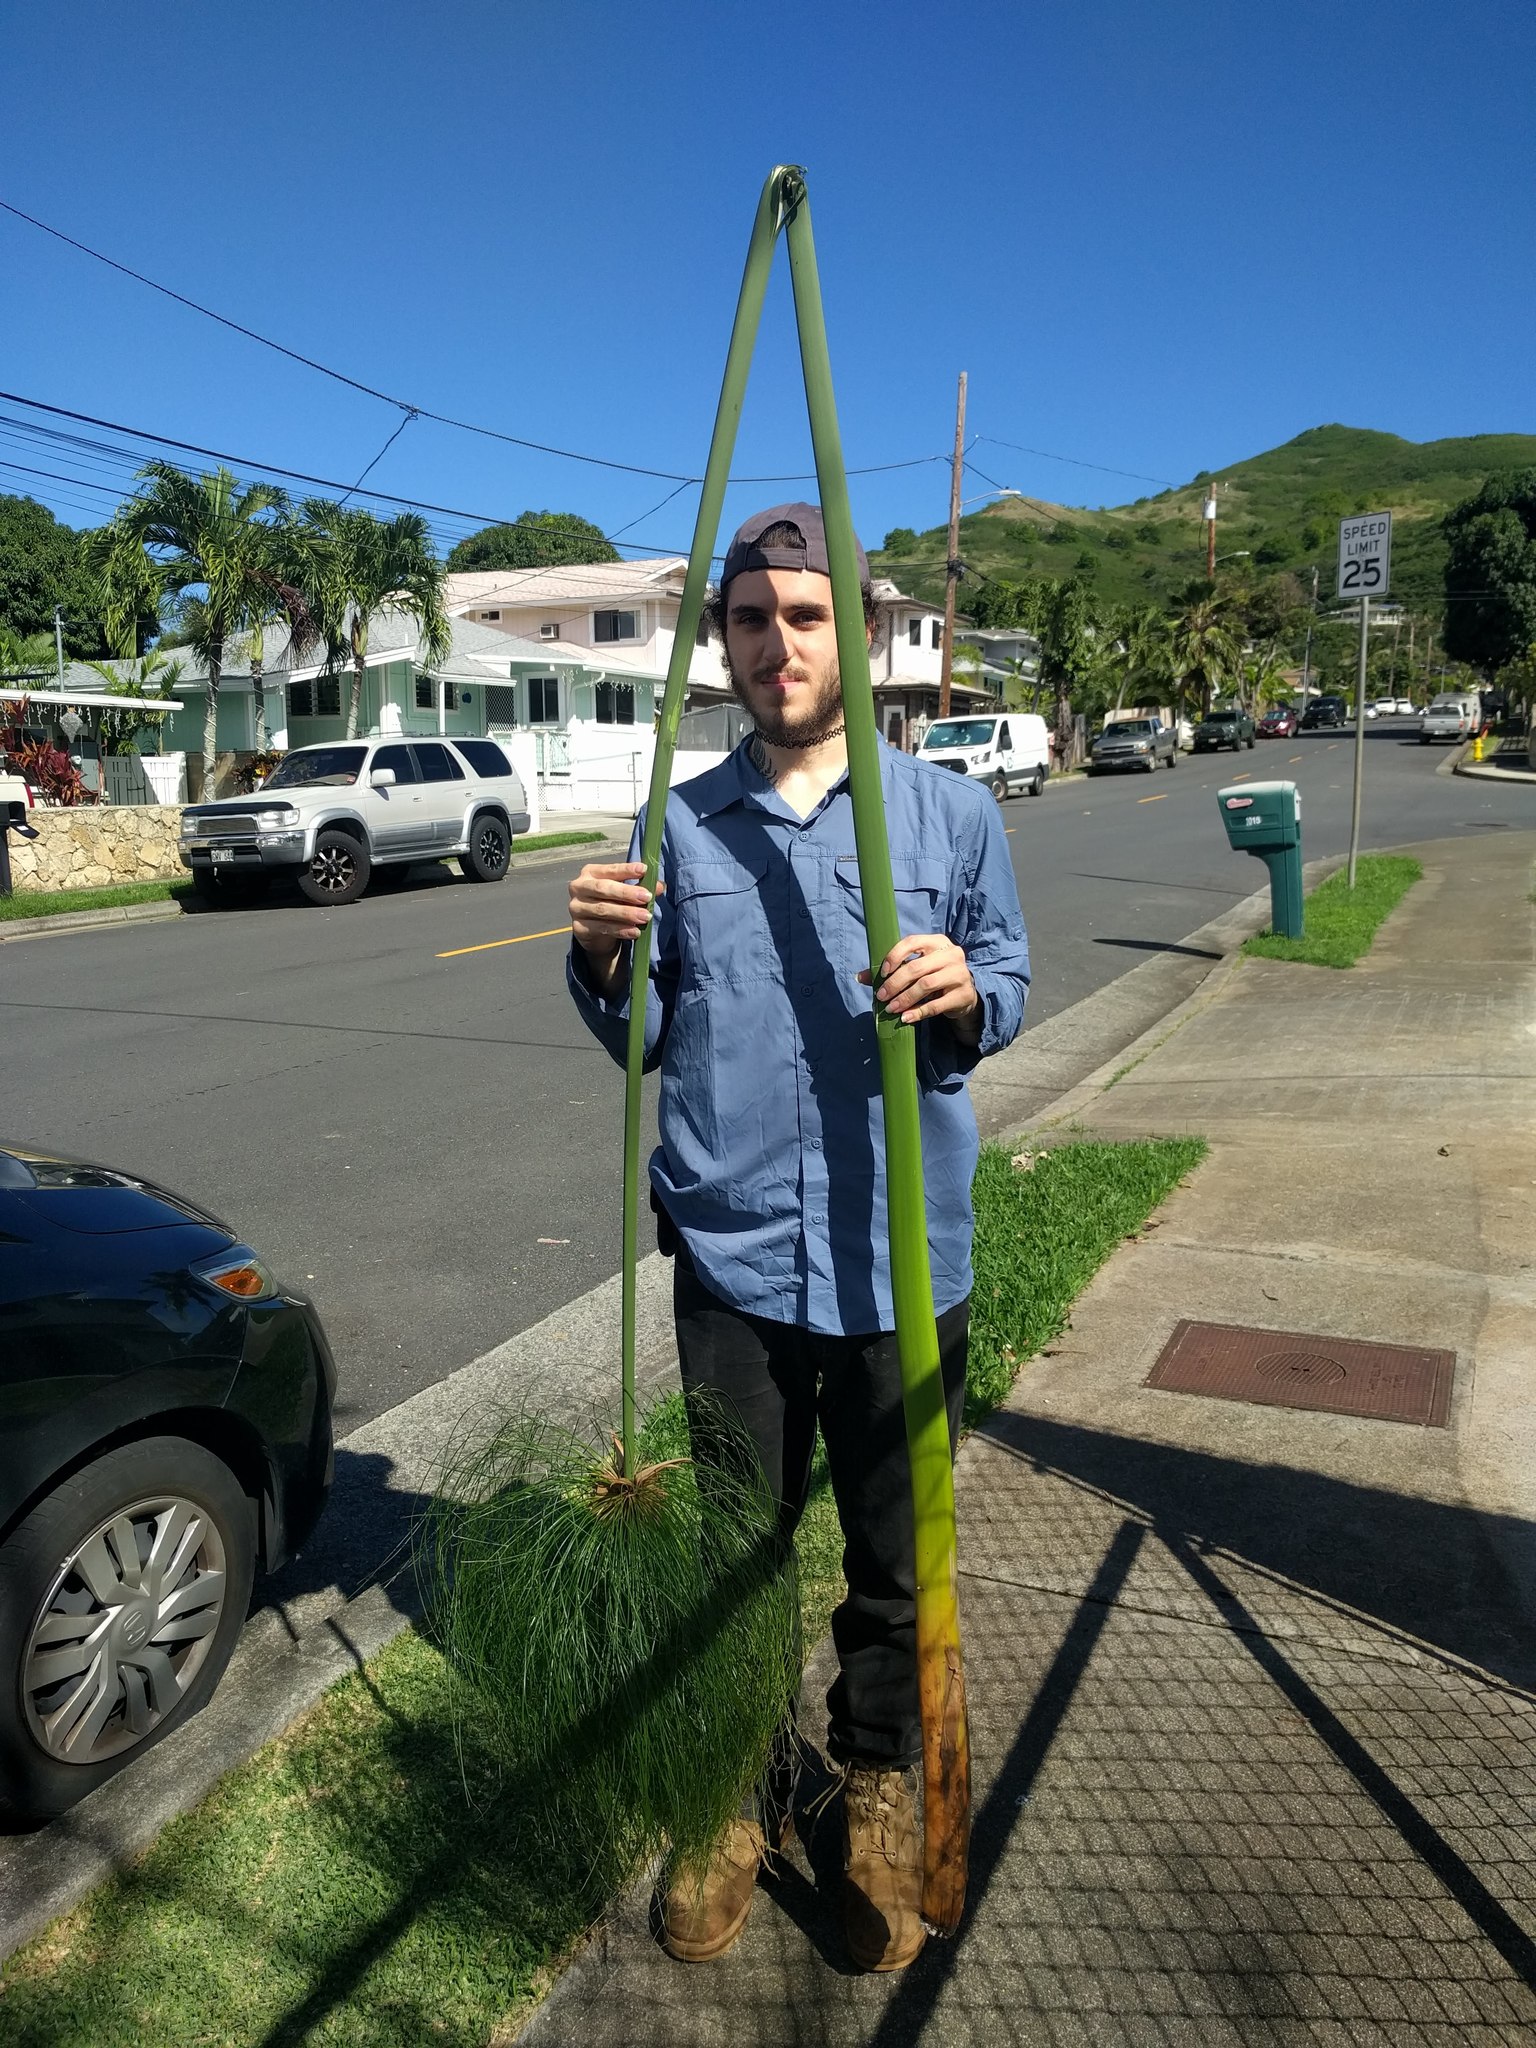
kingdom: Plantae
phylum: Tracheophyta
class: Liliopsida
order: Poales
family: Cyperaceae
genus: Cyperus
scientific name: Cyperus papyrus
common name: Papyrus
